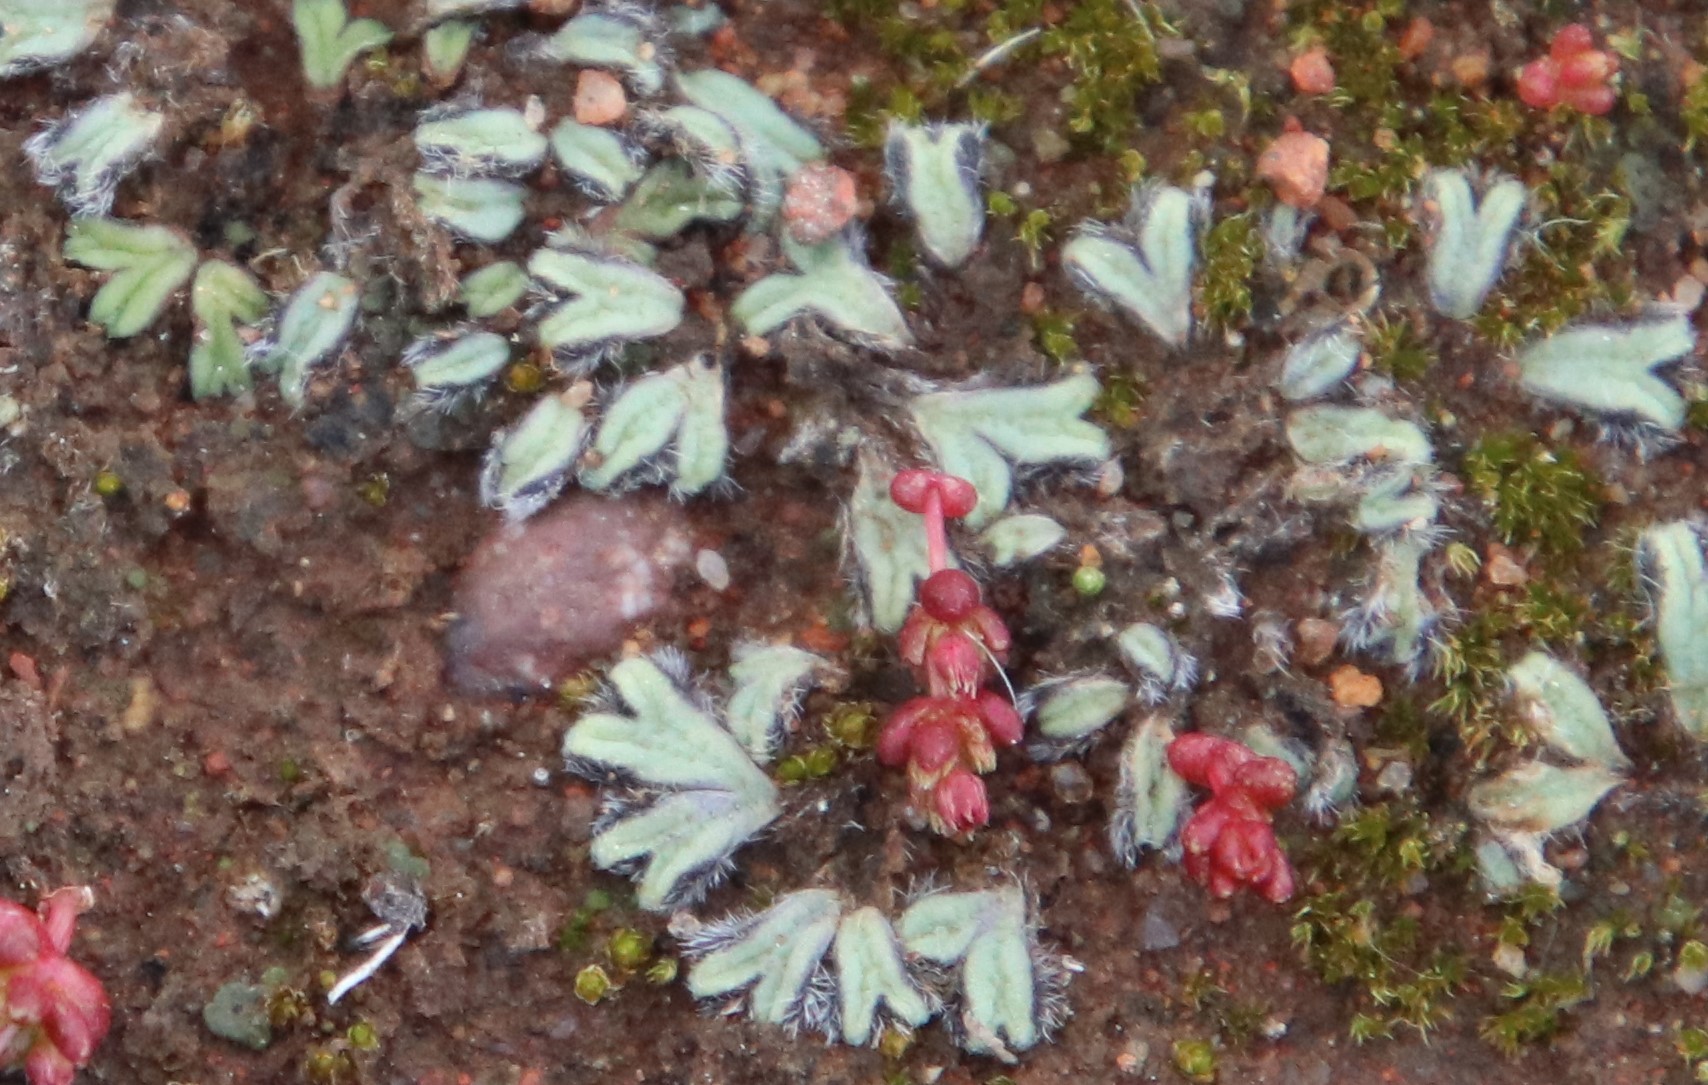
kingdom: Plantae
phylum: Marchantiophyta
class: Marchantiopsida
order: Marchantiales
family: Ricciaceae
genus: Riccia
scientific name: Riccia trichocarpa
